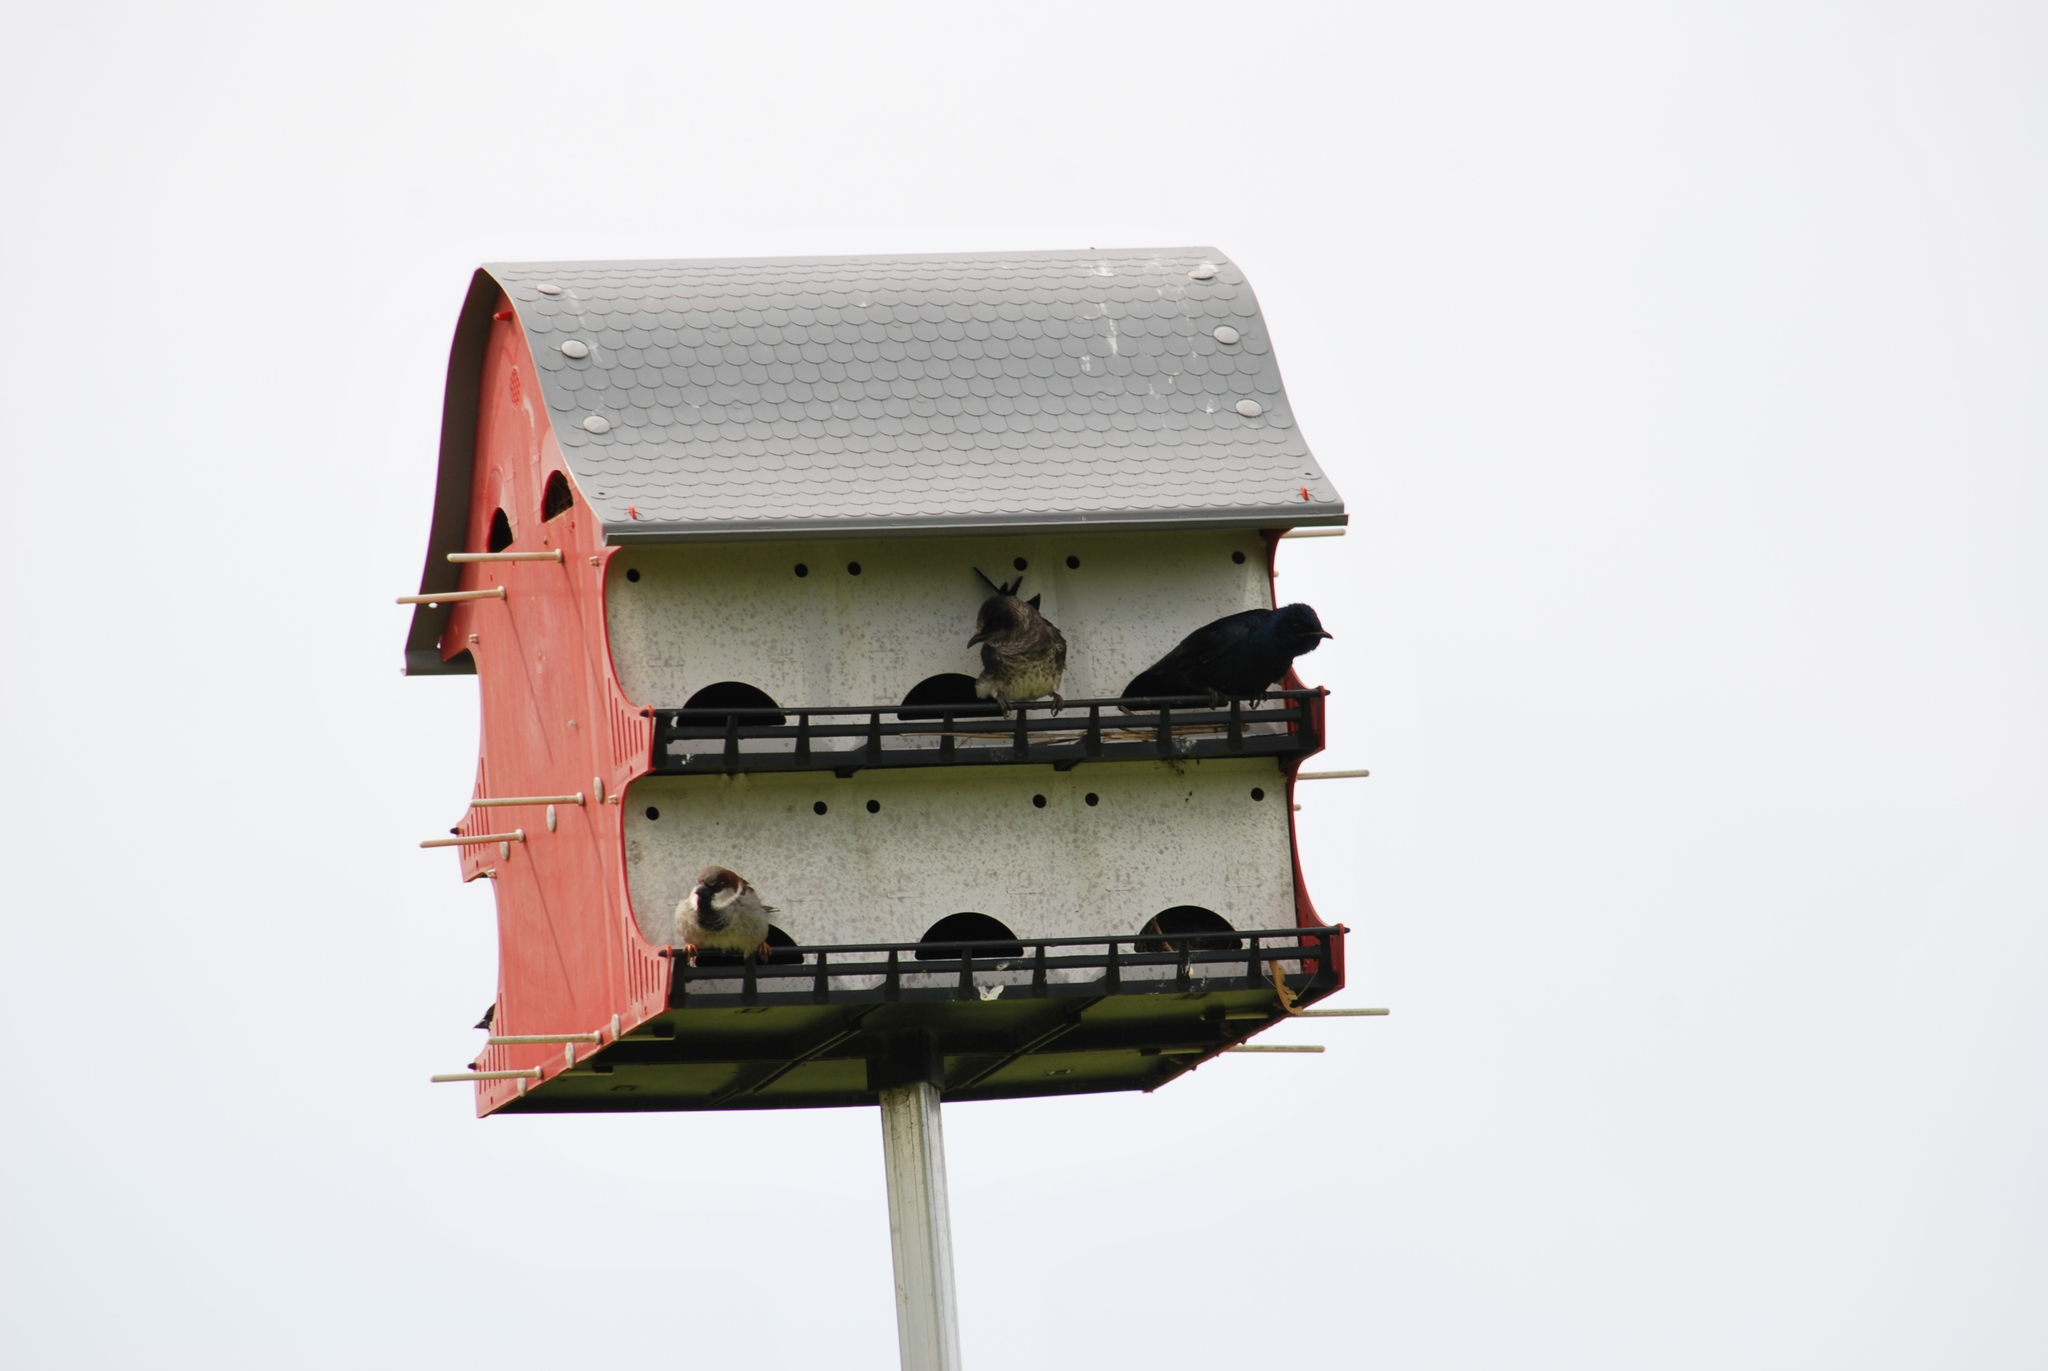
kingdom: Animalia
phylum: Chordata
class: Aves
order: Passeriformes
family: Hirundinidae
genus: Progne
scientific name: Progne subis
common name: Purple martin
